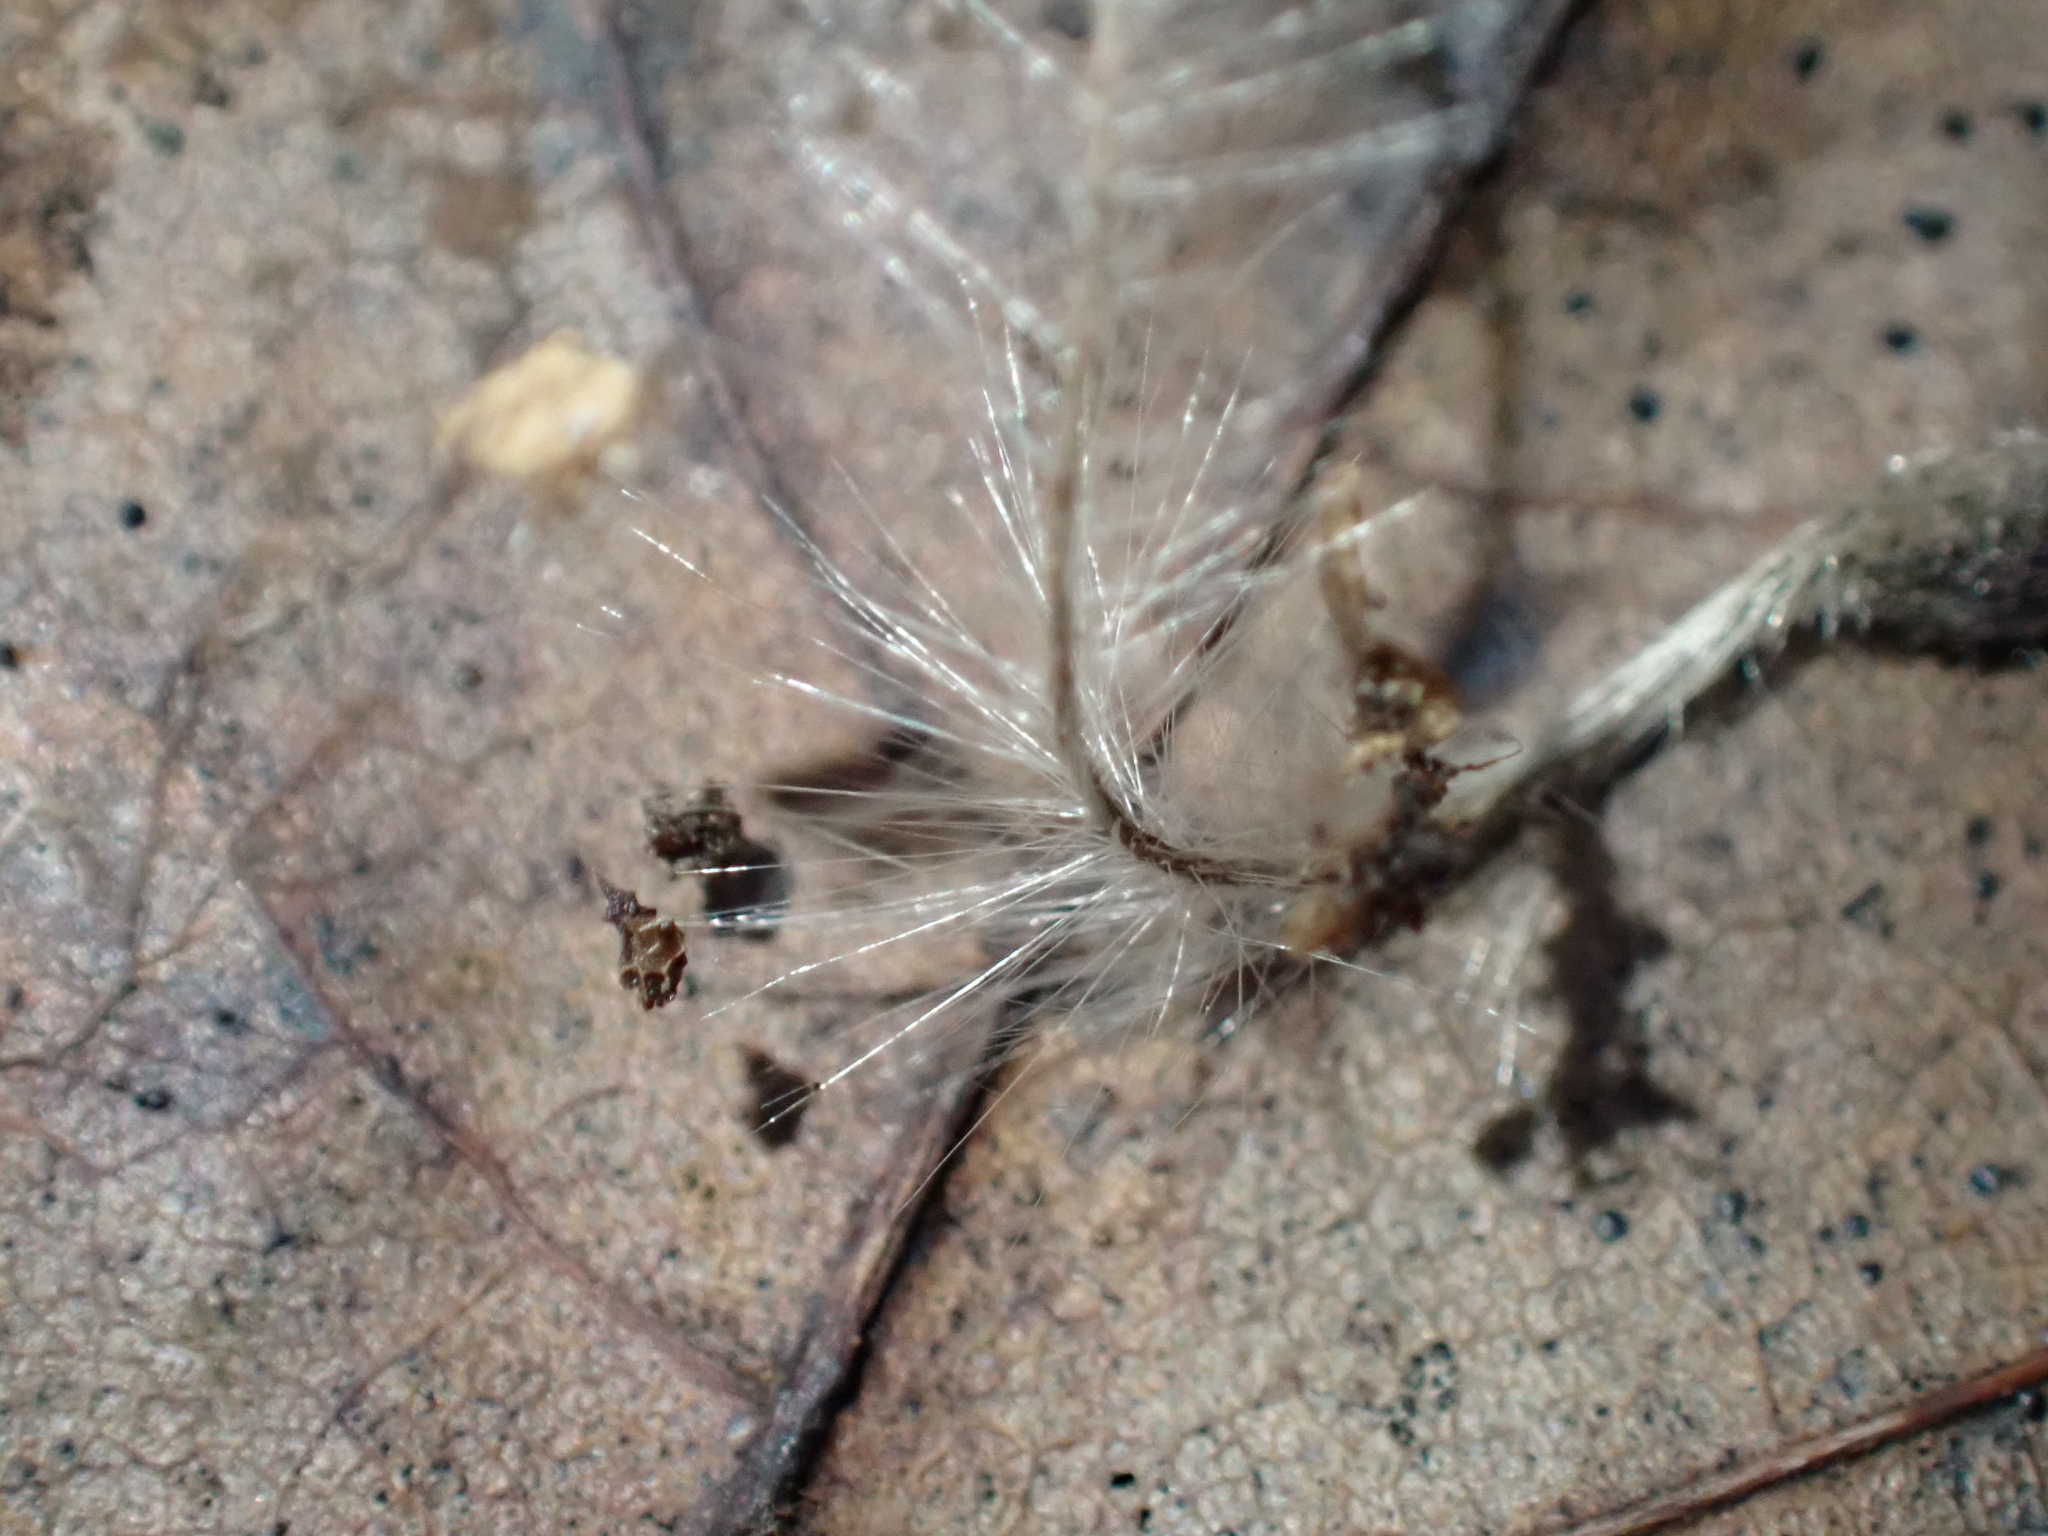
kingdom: Plantae
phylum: Tracheophyta
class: Magnoliopsida
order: Ranunculales
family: Ranunculaceae
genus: Clematis
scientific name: Clematis vitalba
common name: Evergreen clematis
